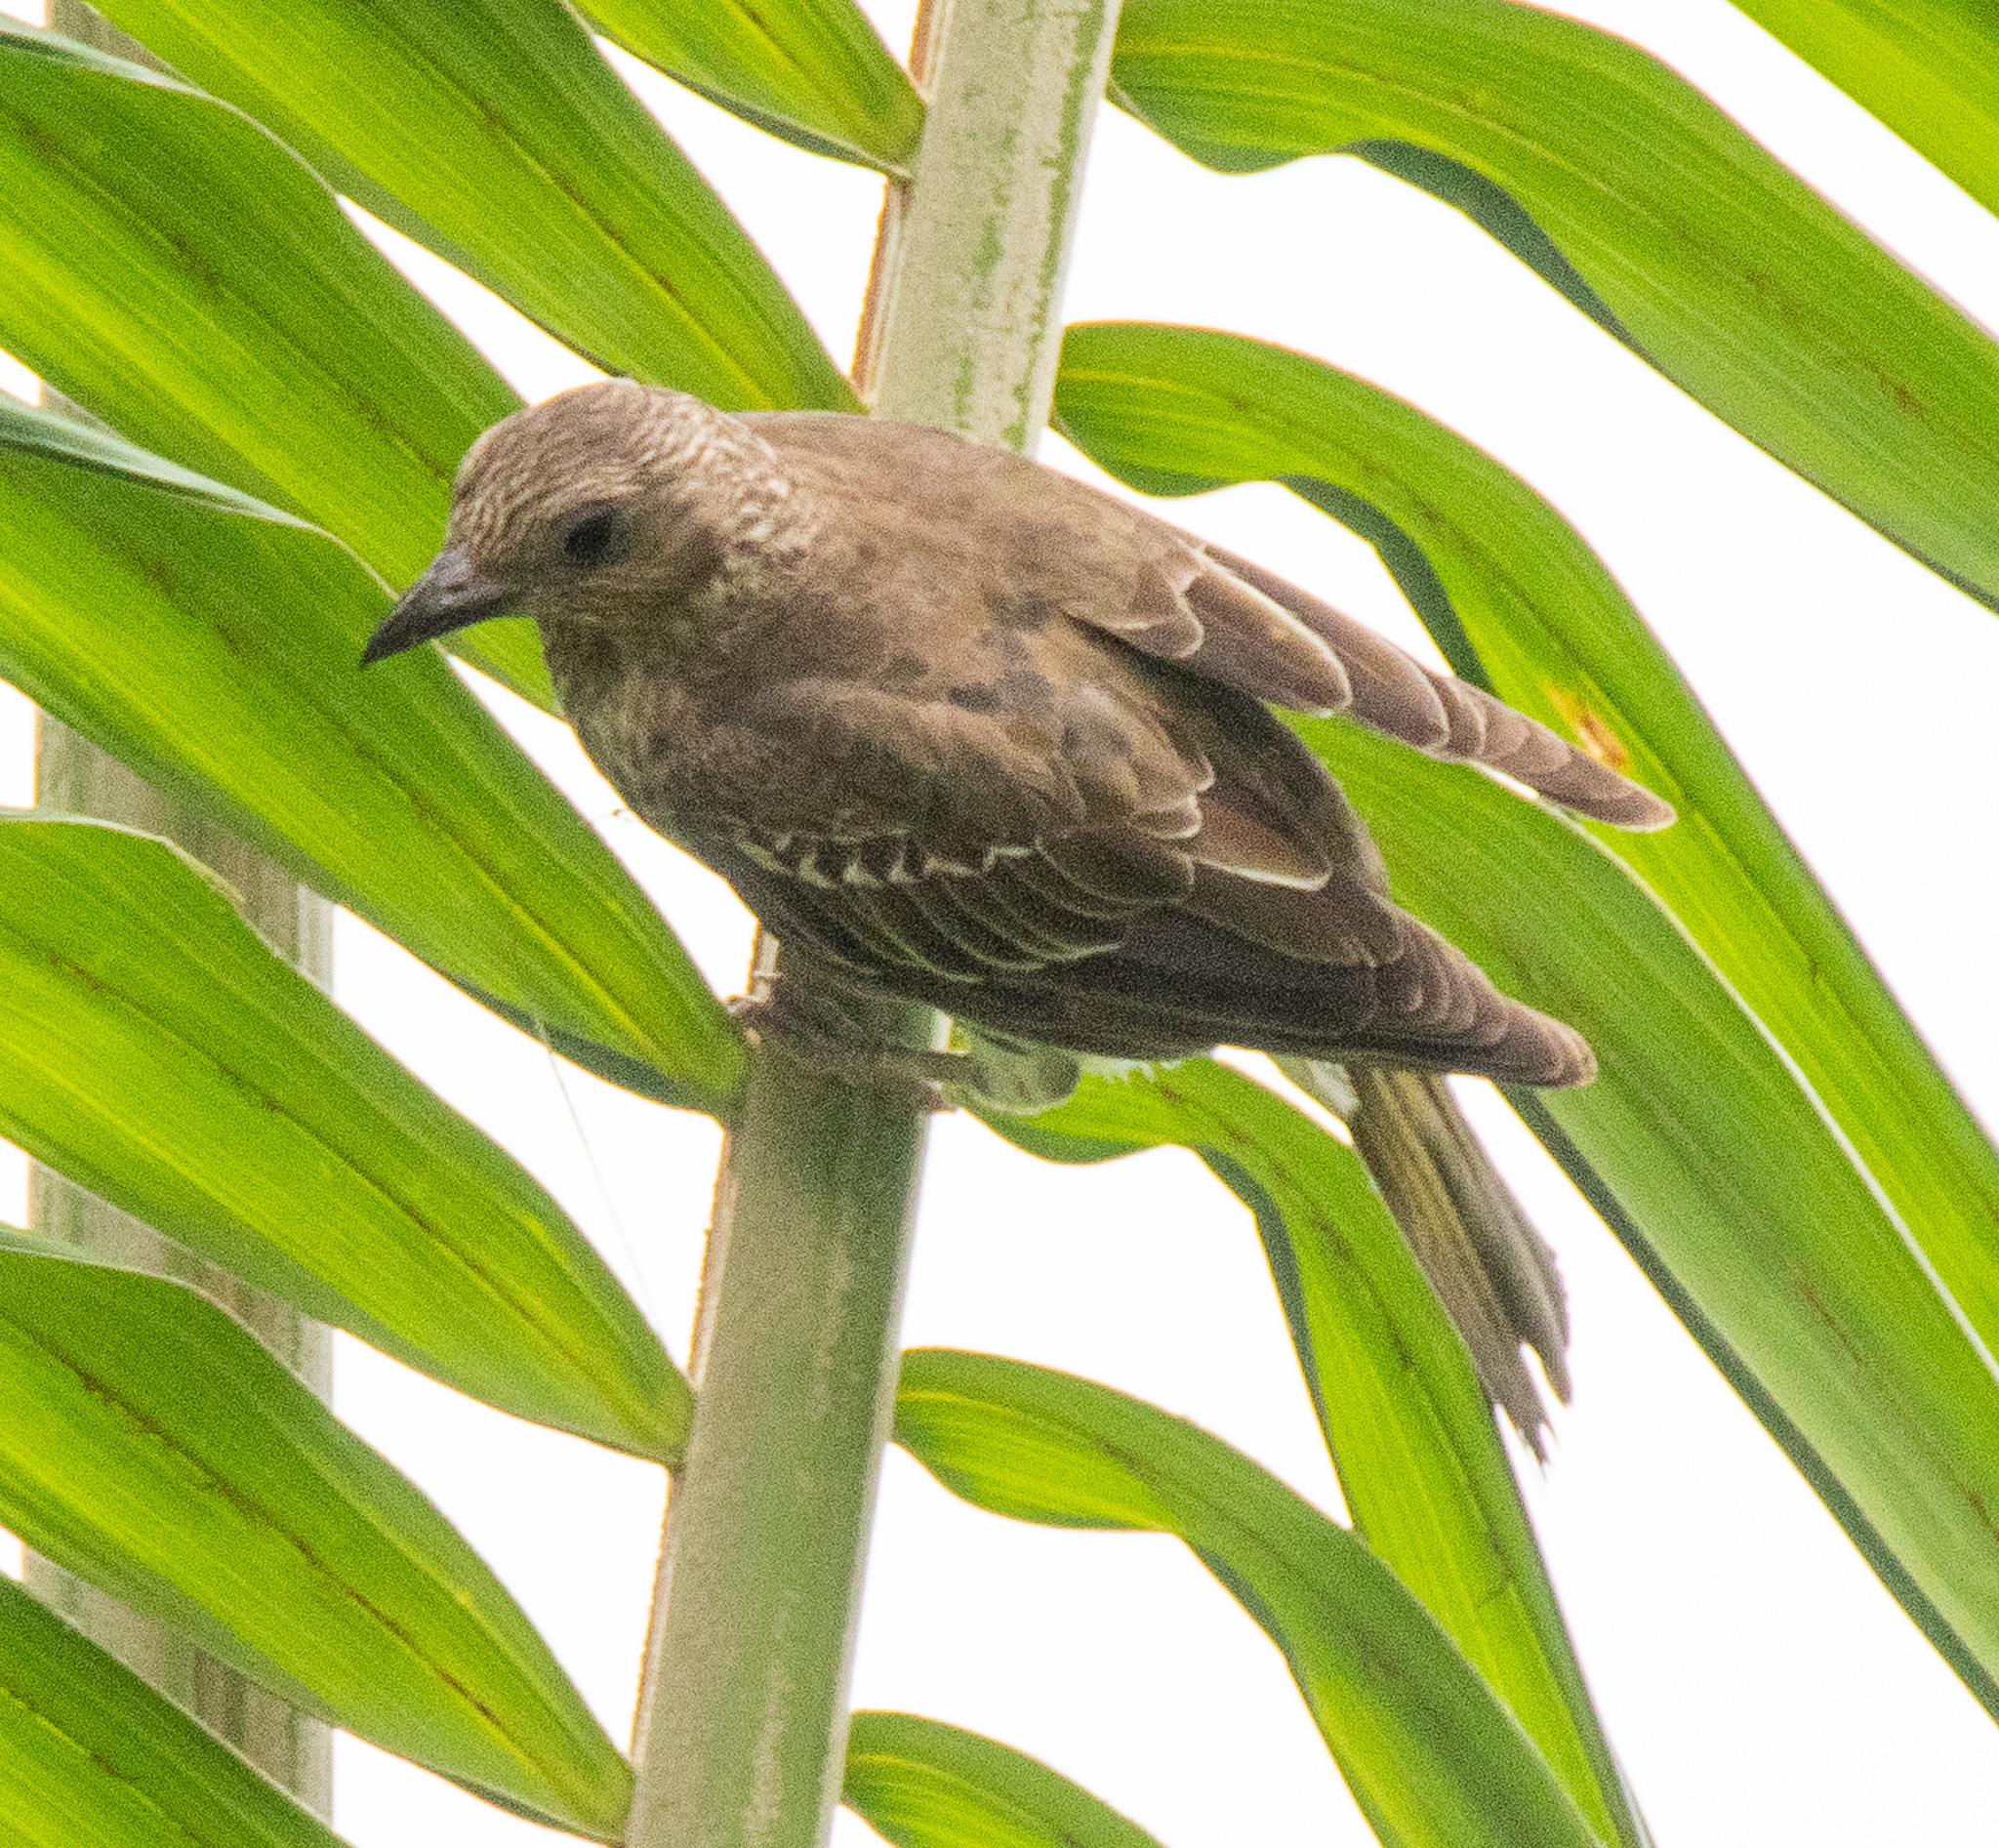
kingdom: Animalia
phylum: Chordata
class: Aves
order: Passeriformes
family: Oriolidae
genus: Sphecotheres
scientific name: Sphecotheres vieilloti
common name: Australasian figbird
